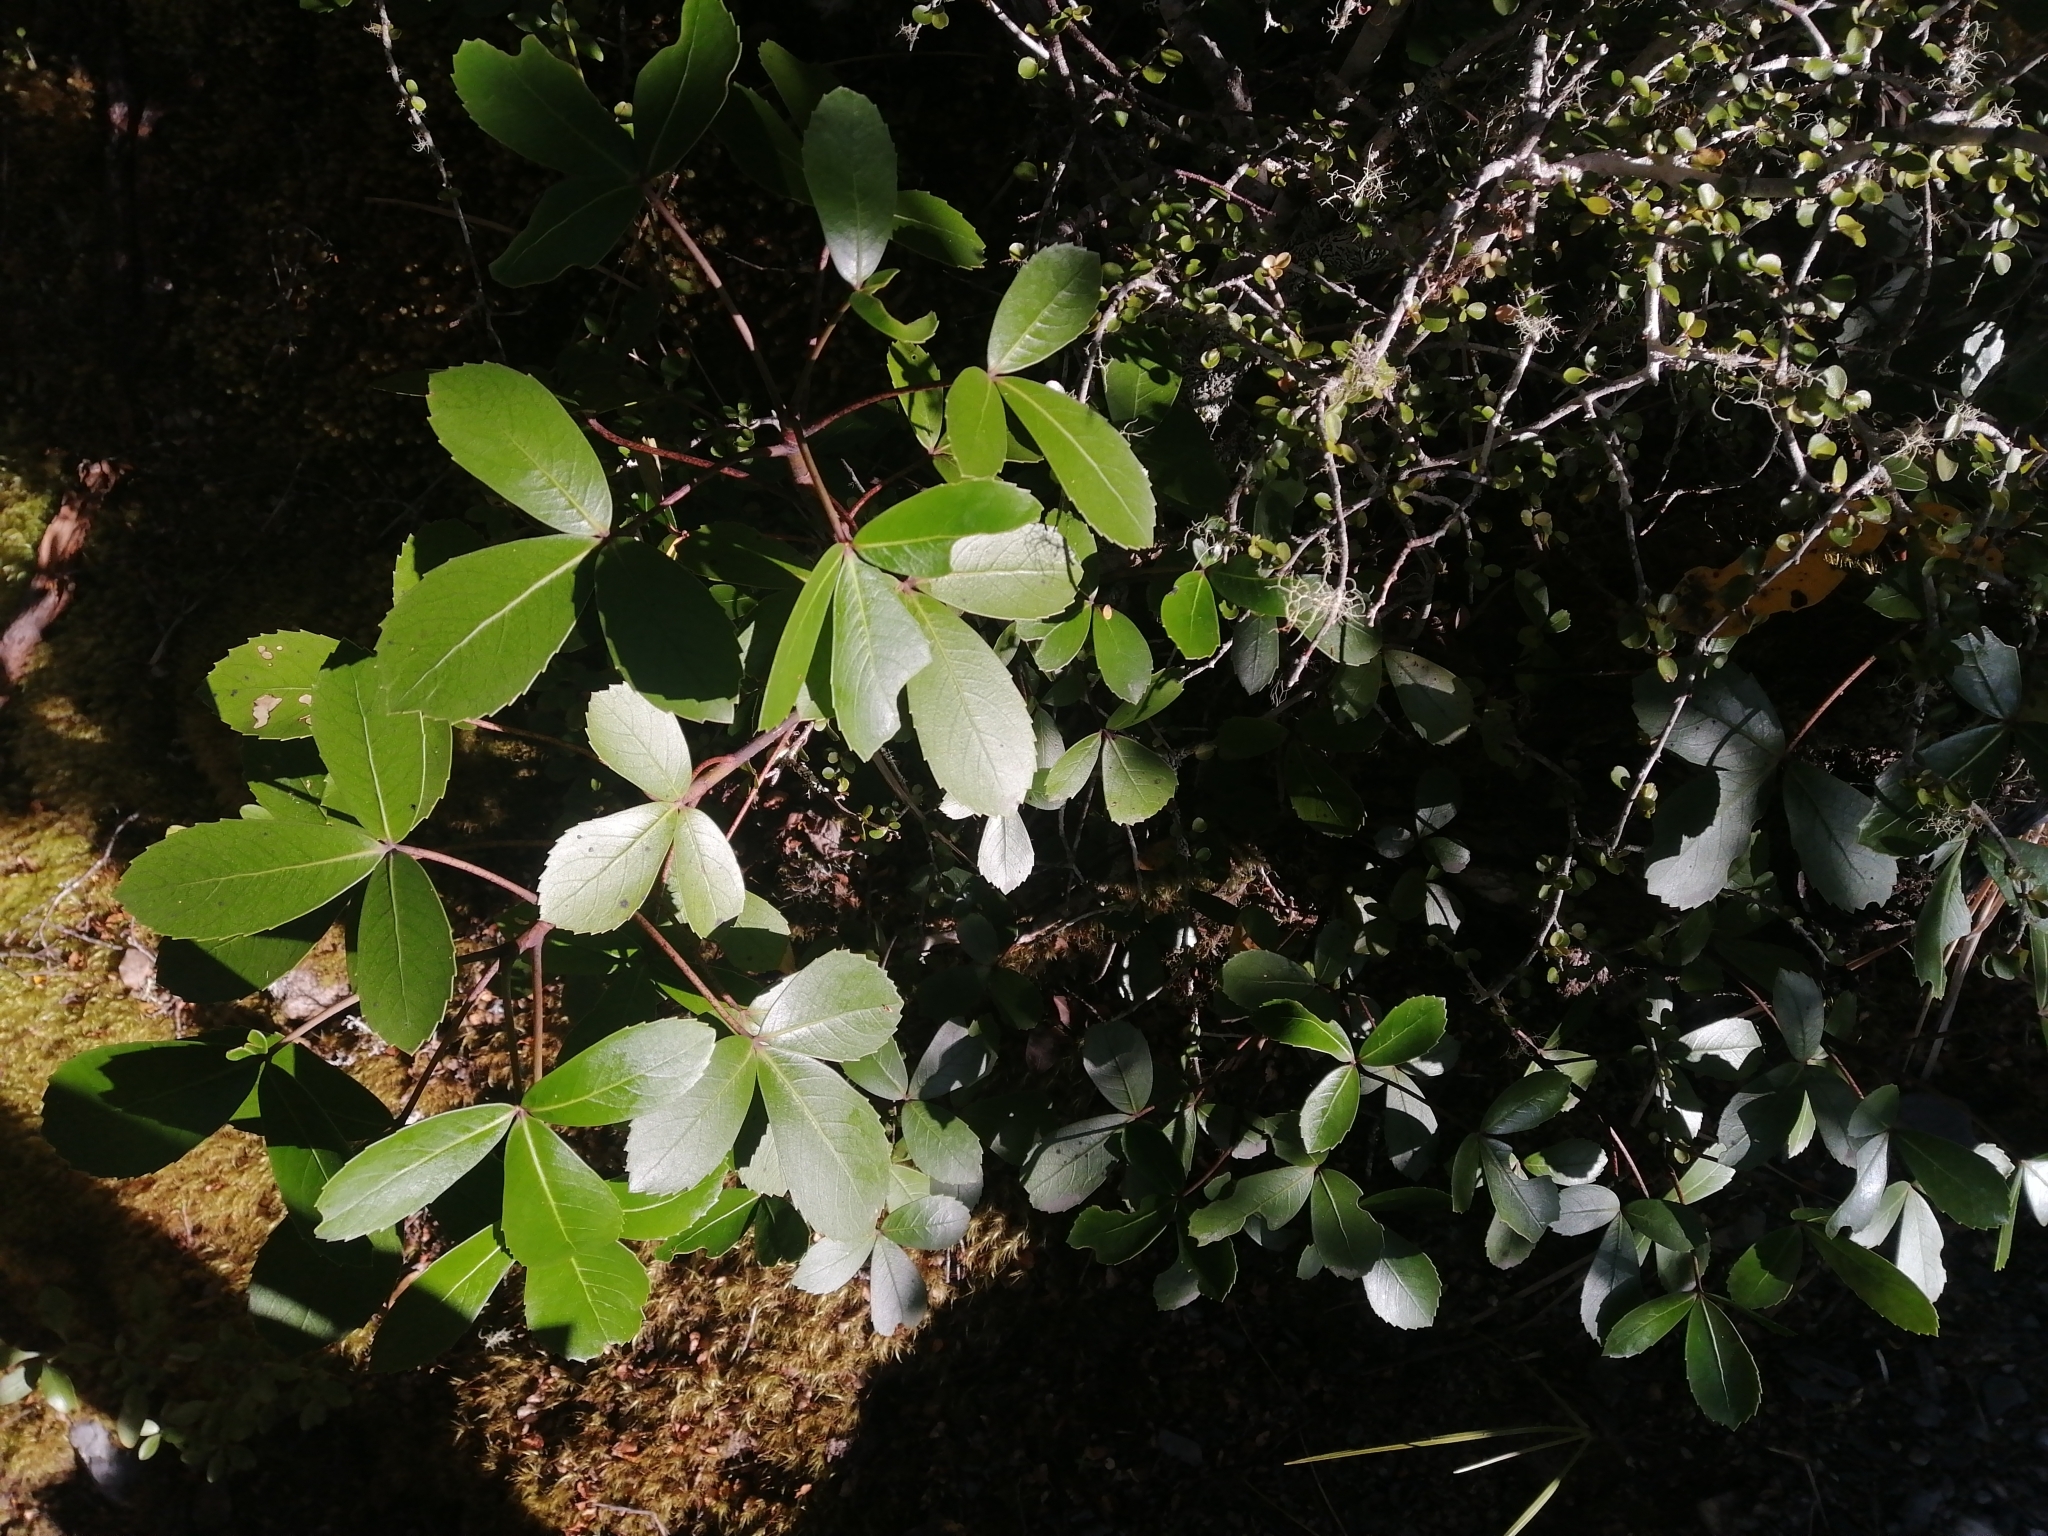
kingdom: Plantae
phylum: Tracheophyta
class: Magnoliopsida
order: Apiales
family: Araliaceae
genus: Neopanax
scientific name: Neopanax colensoi
